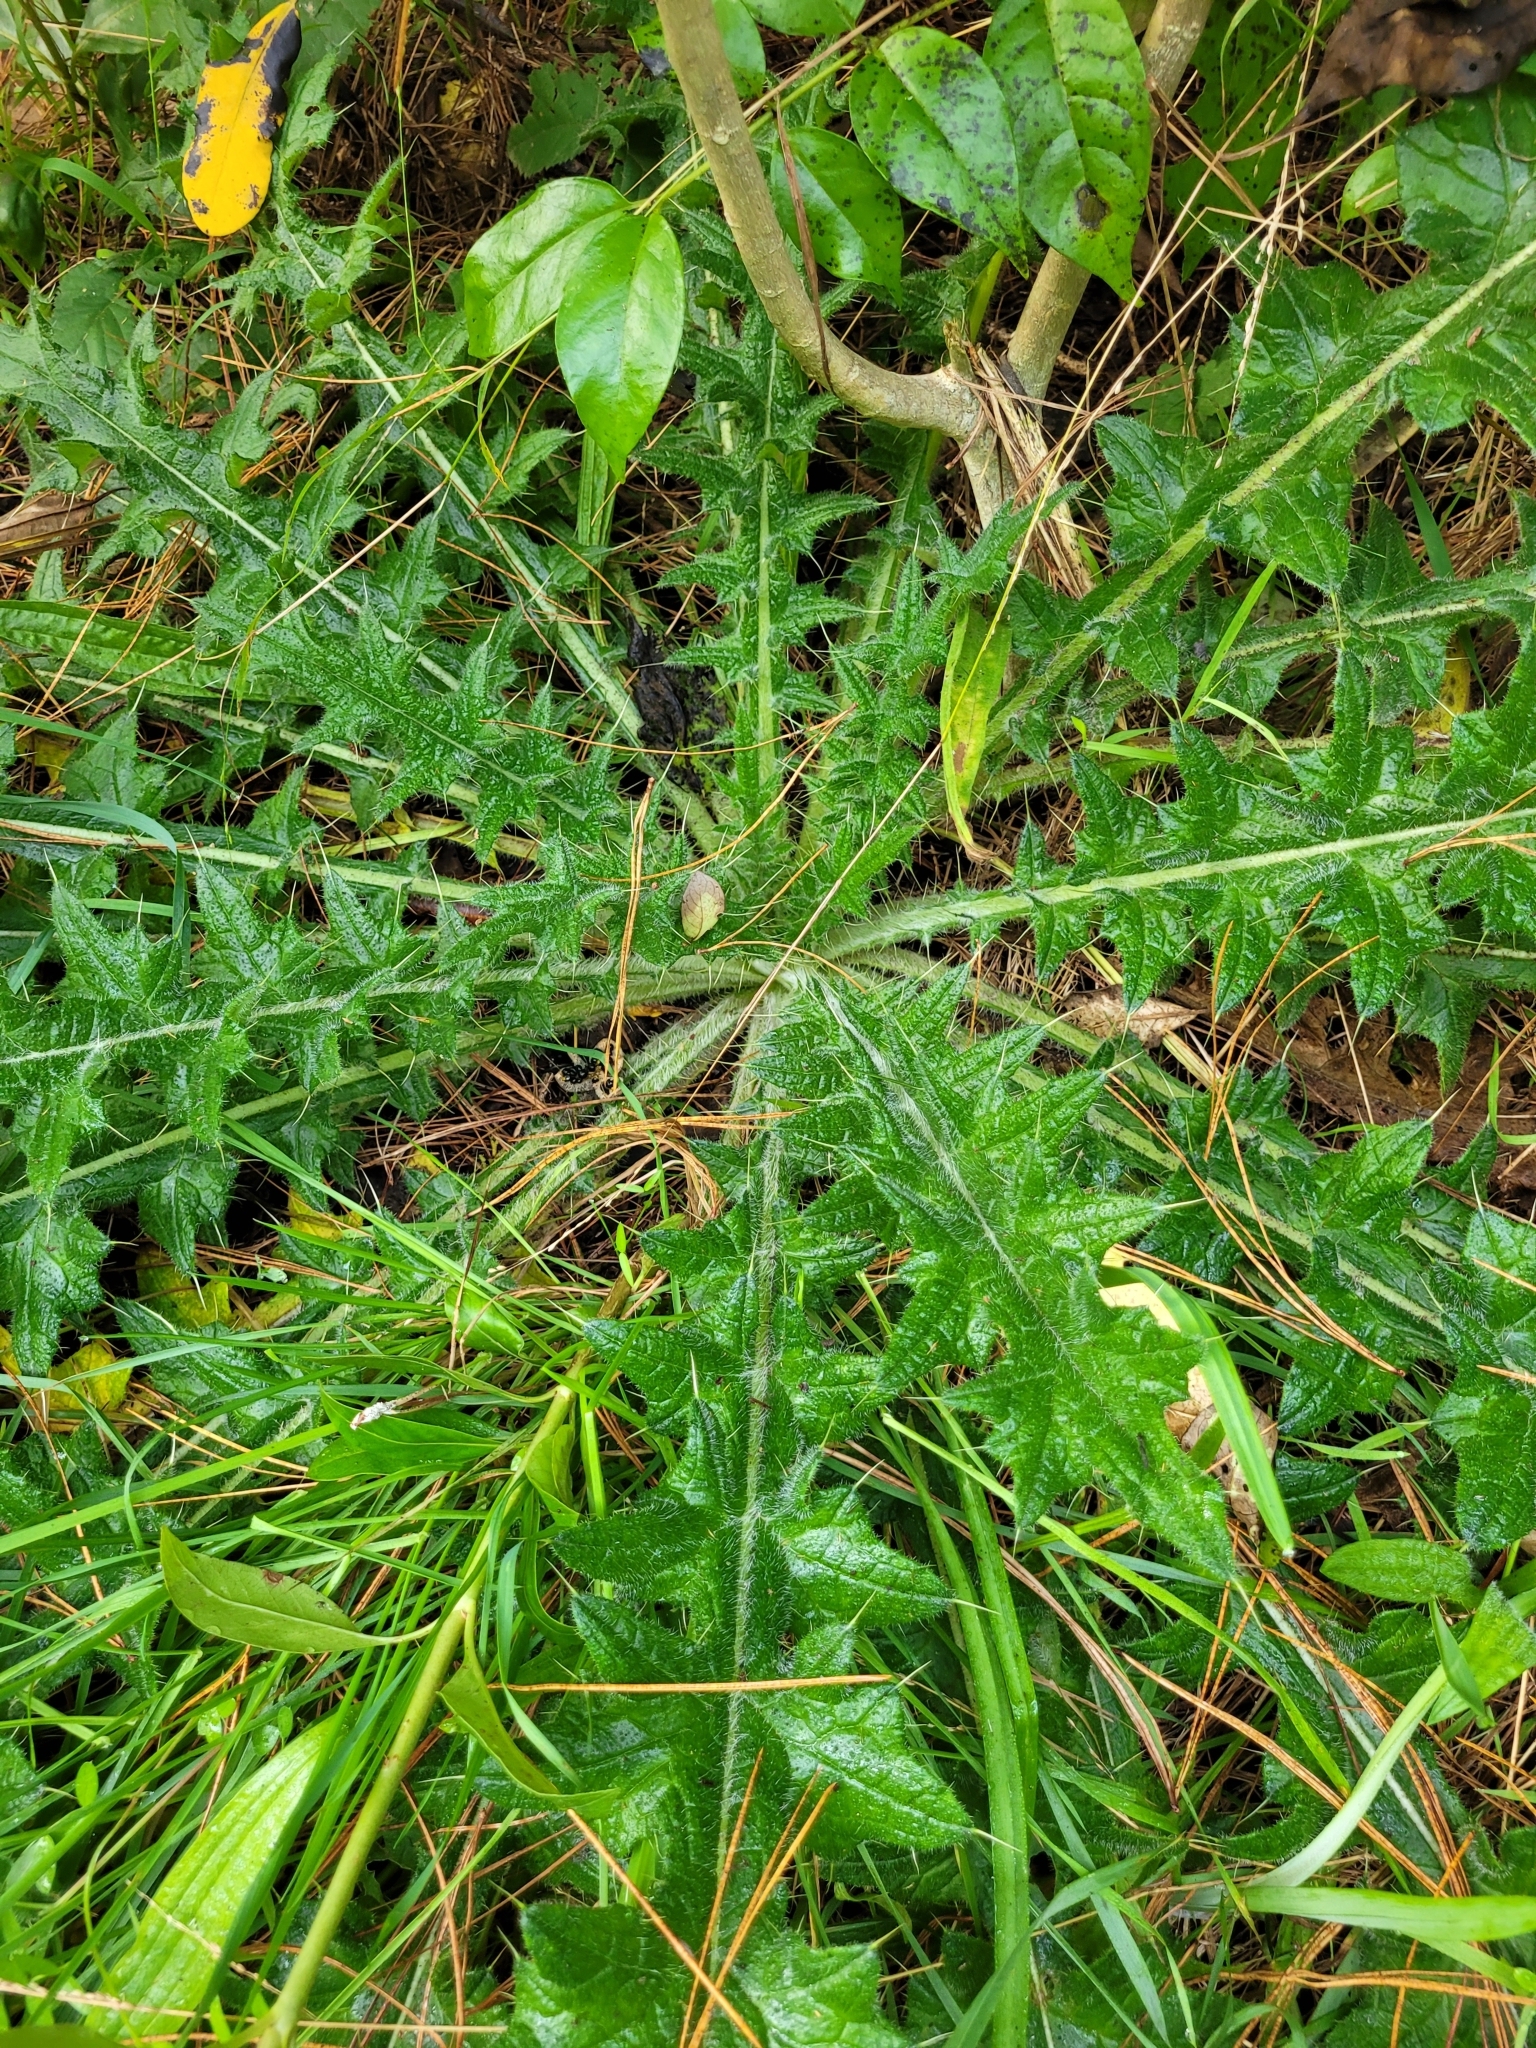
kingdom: Plantae
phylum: Tracheophyta
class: Magnoliopsida
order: Asterales
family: Asteraceae
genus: Cirsium
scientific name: Cirsium vulgare
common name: Bull thistle
